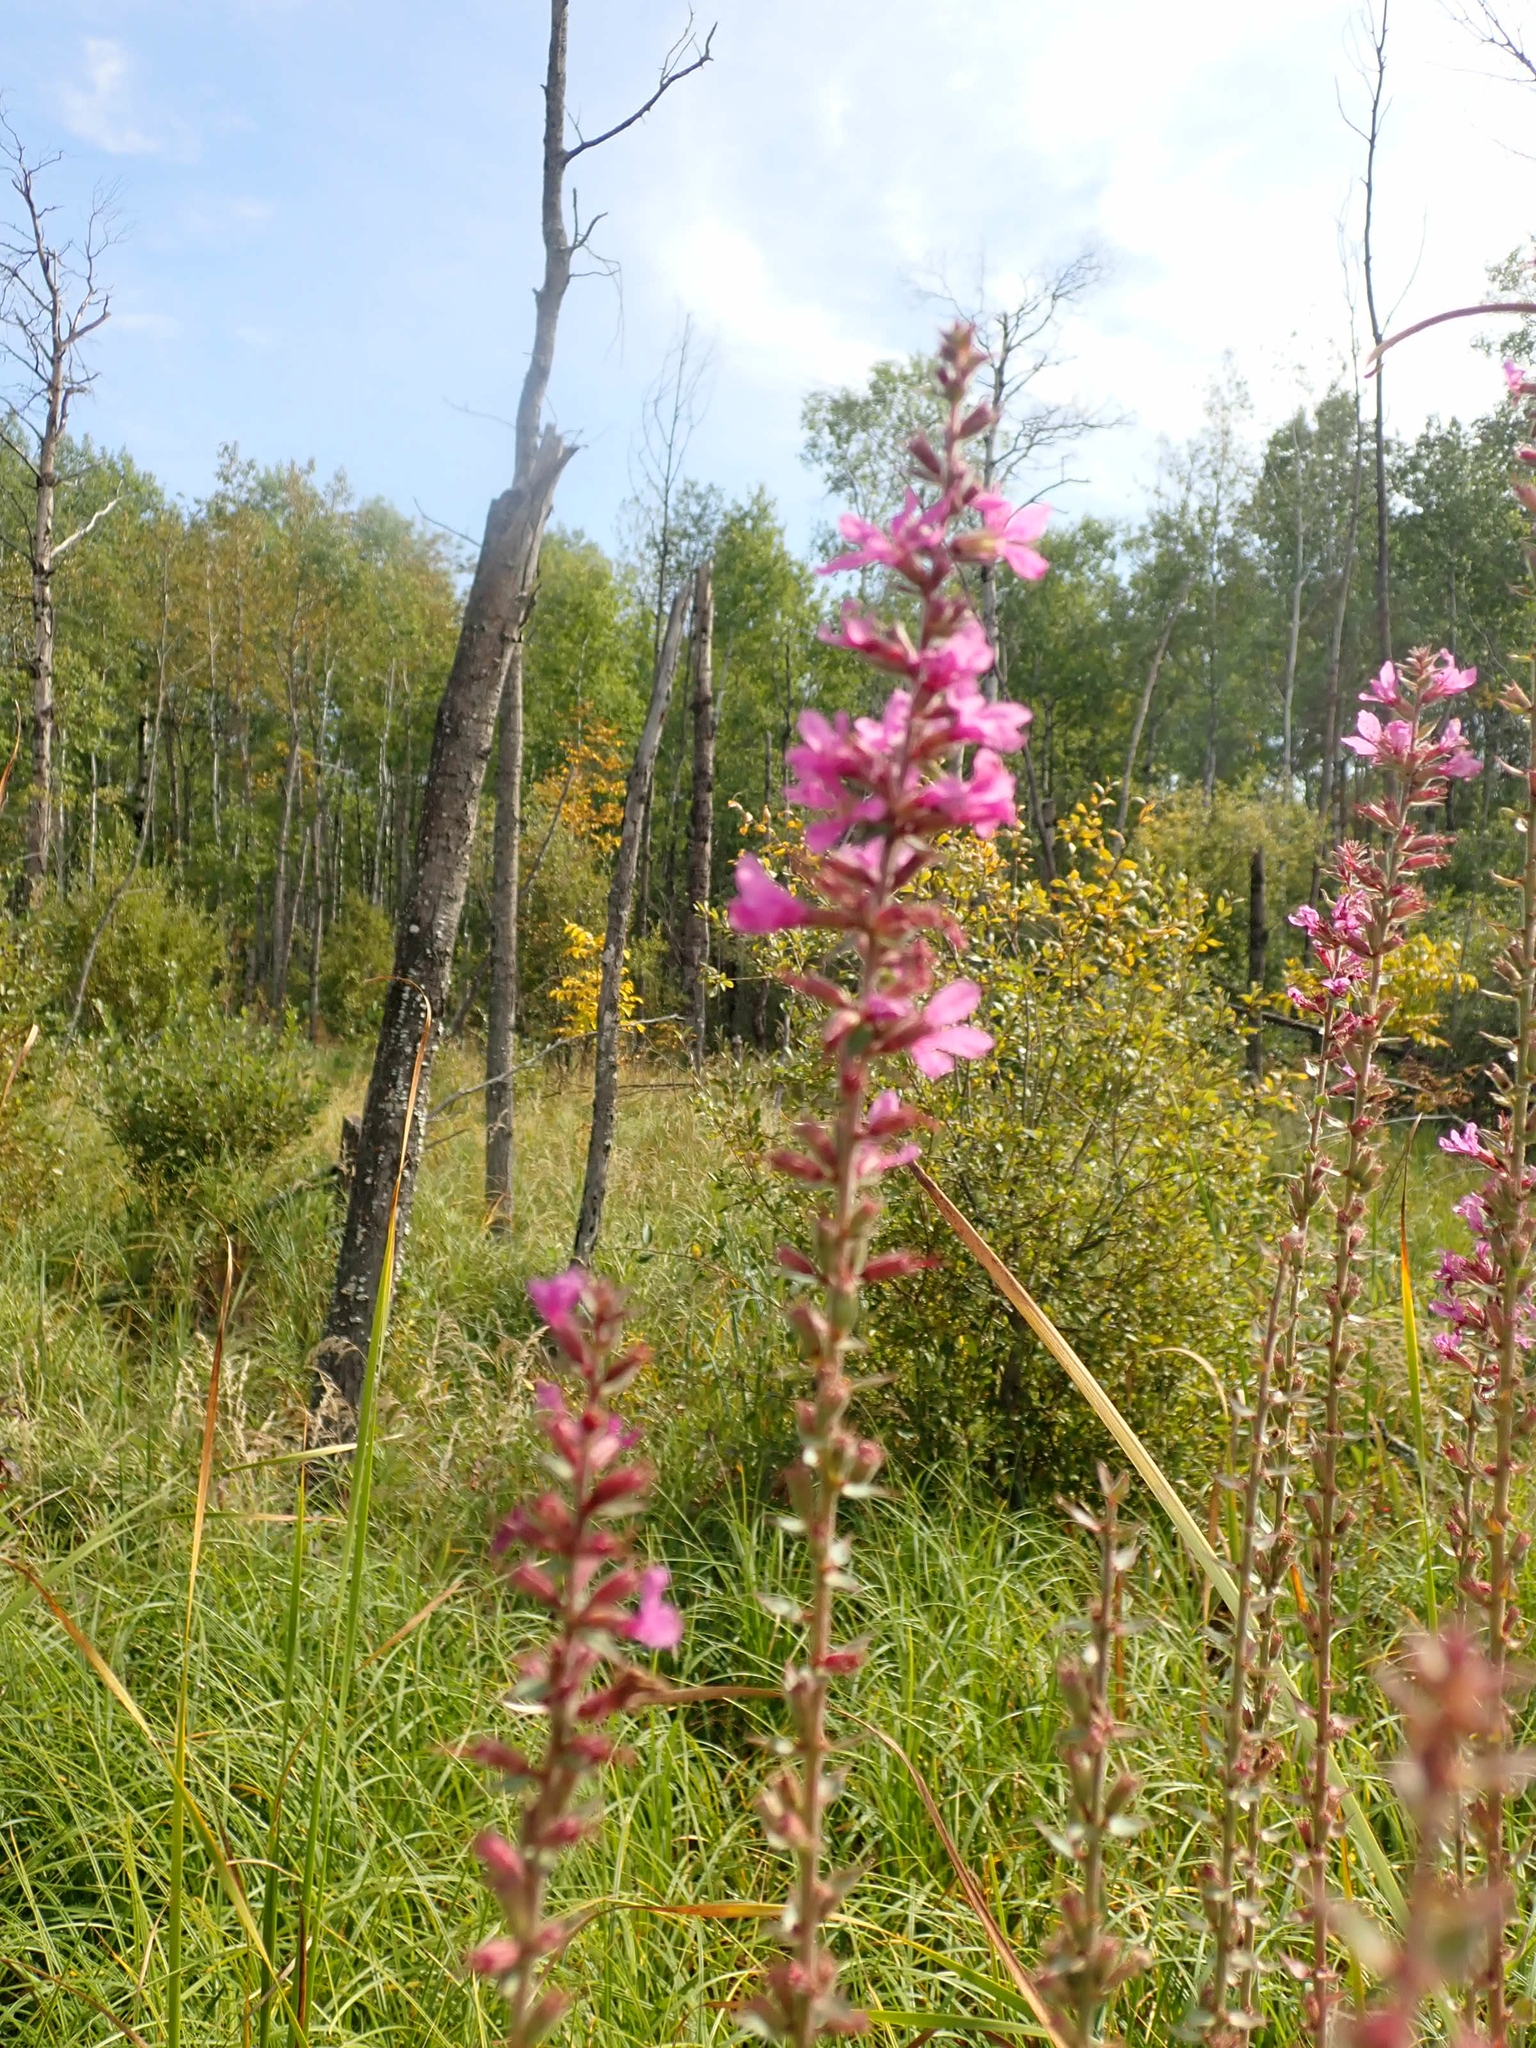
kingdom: Plantae
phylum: Tracheophyta
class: Magnoliopsida
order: Myrtales
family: Lythraceae
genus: Lythrum
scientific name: Lythrum salicaria
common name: Purple loosestrife
